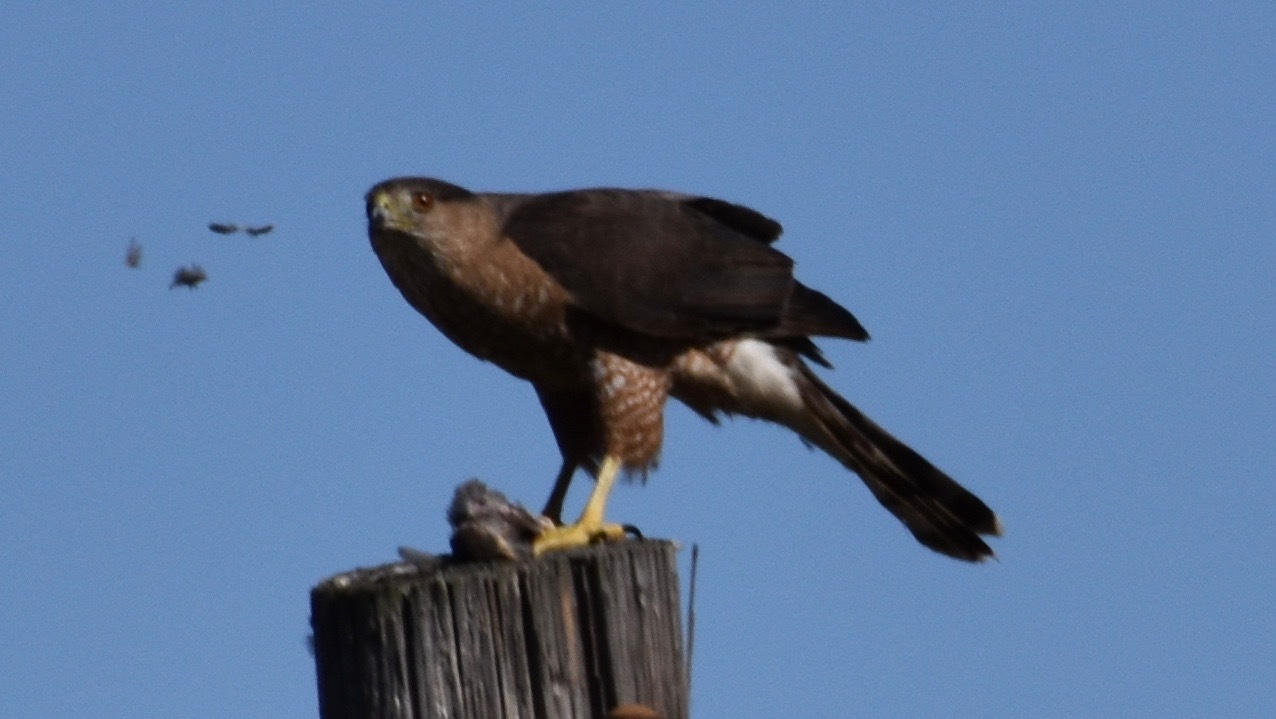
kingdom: Animalia
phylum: Chordata
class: Aves
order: Accipitriformes
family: Accipitridae
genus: Accipiter
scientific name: Accipiter cooperii
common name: Cooper's hawk
